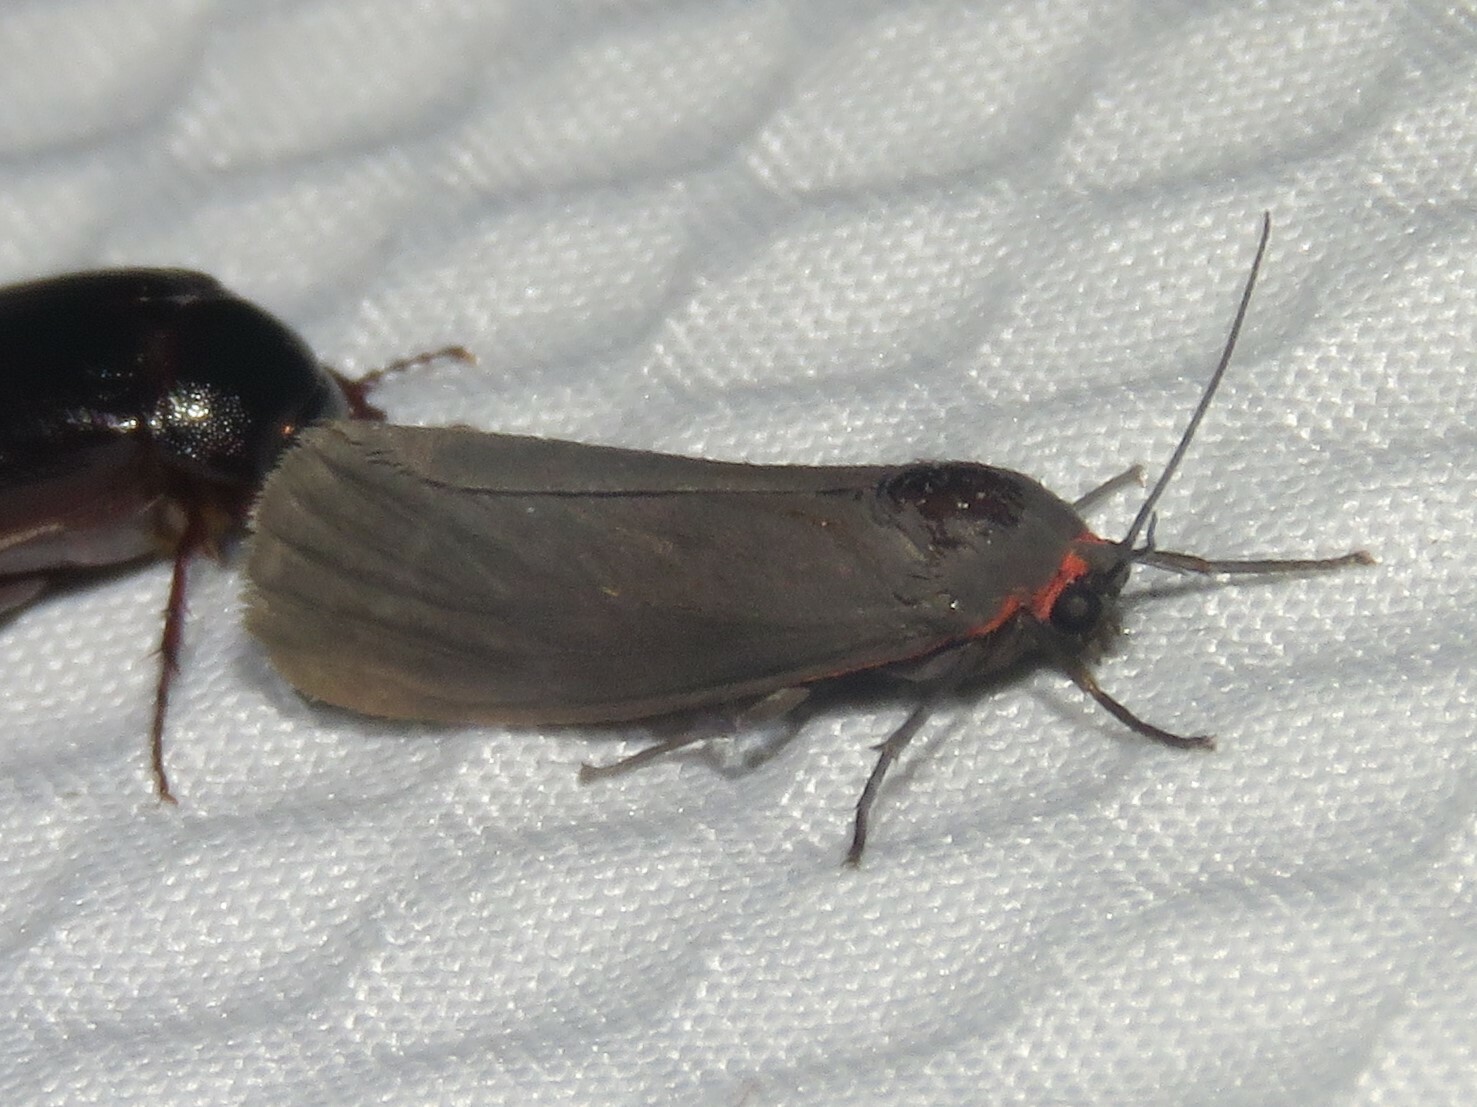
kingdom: Animalia
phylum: Arthropoda
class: Insecta
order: Lepidoptera
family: Erebidae
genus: Virbia
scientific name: Virbia laeta
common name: Joyful holomelina moth
